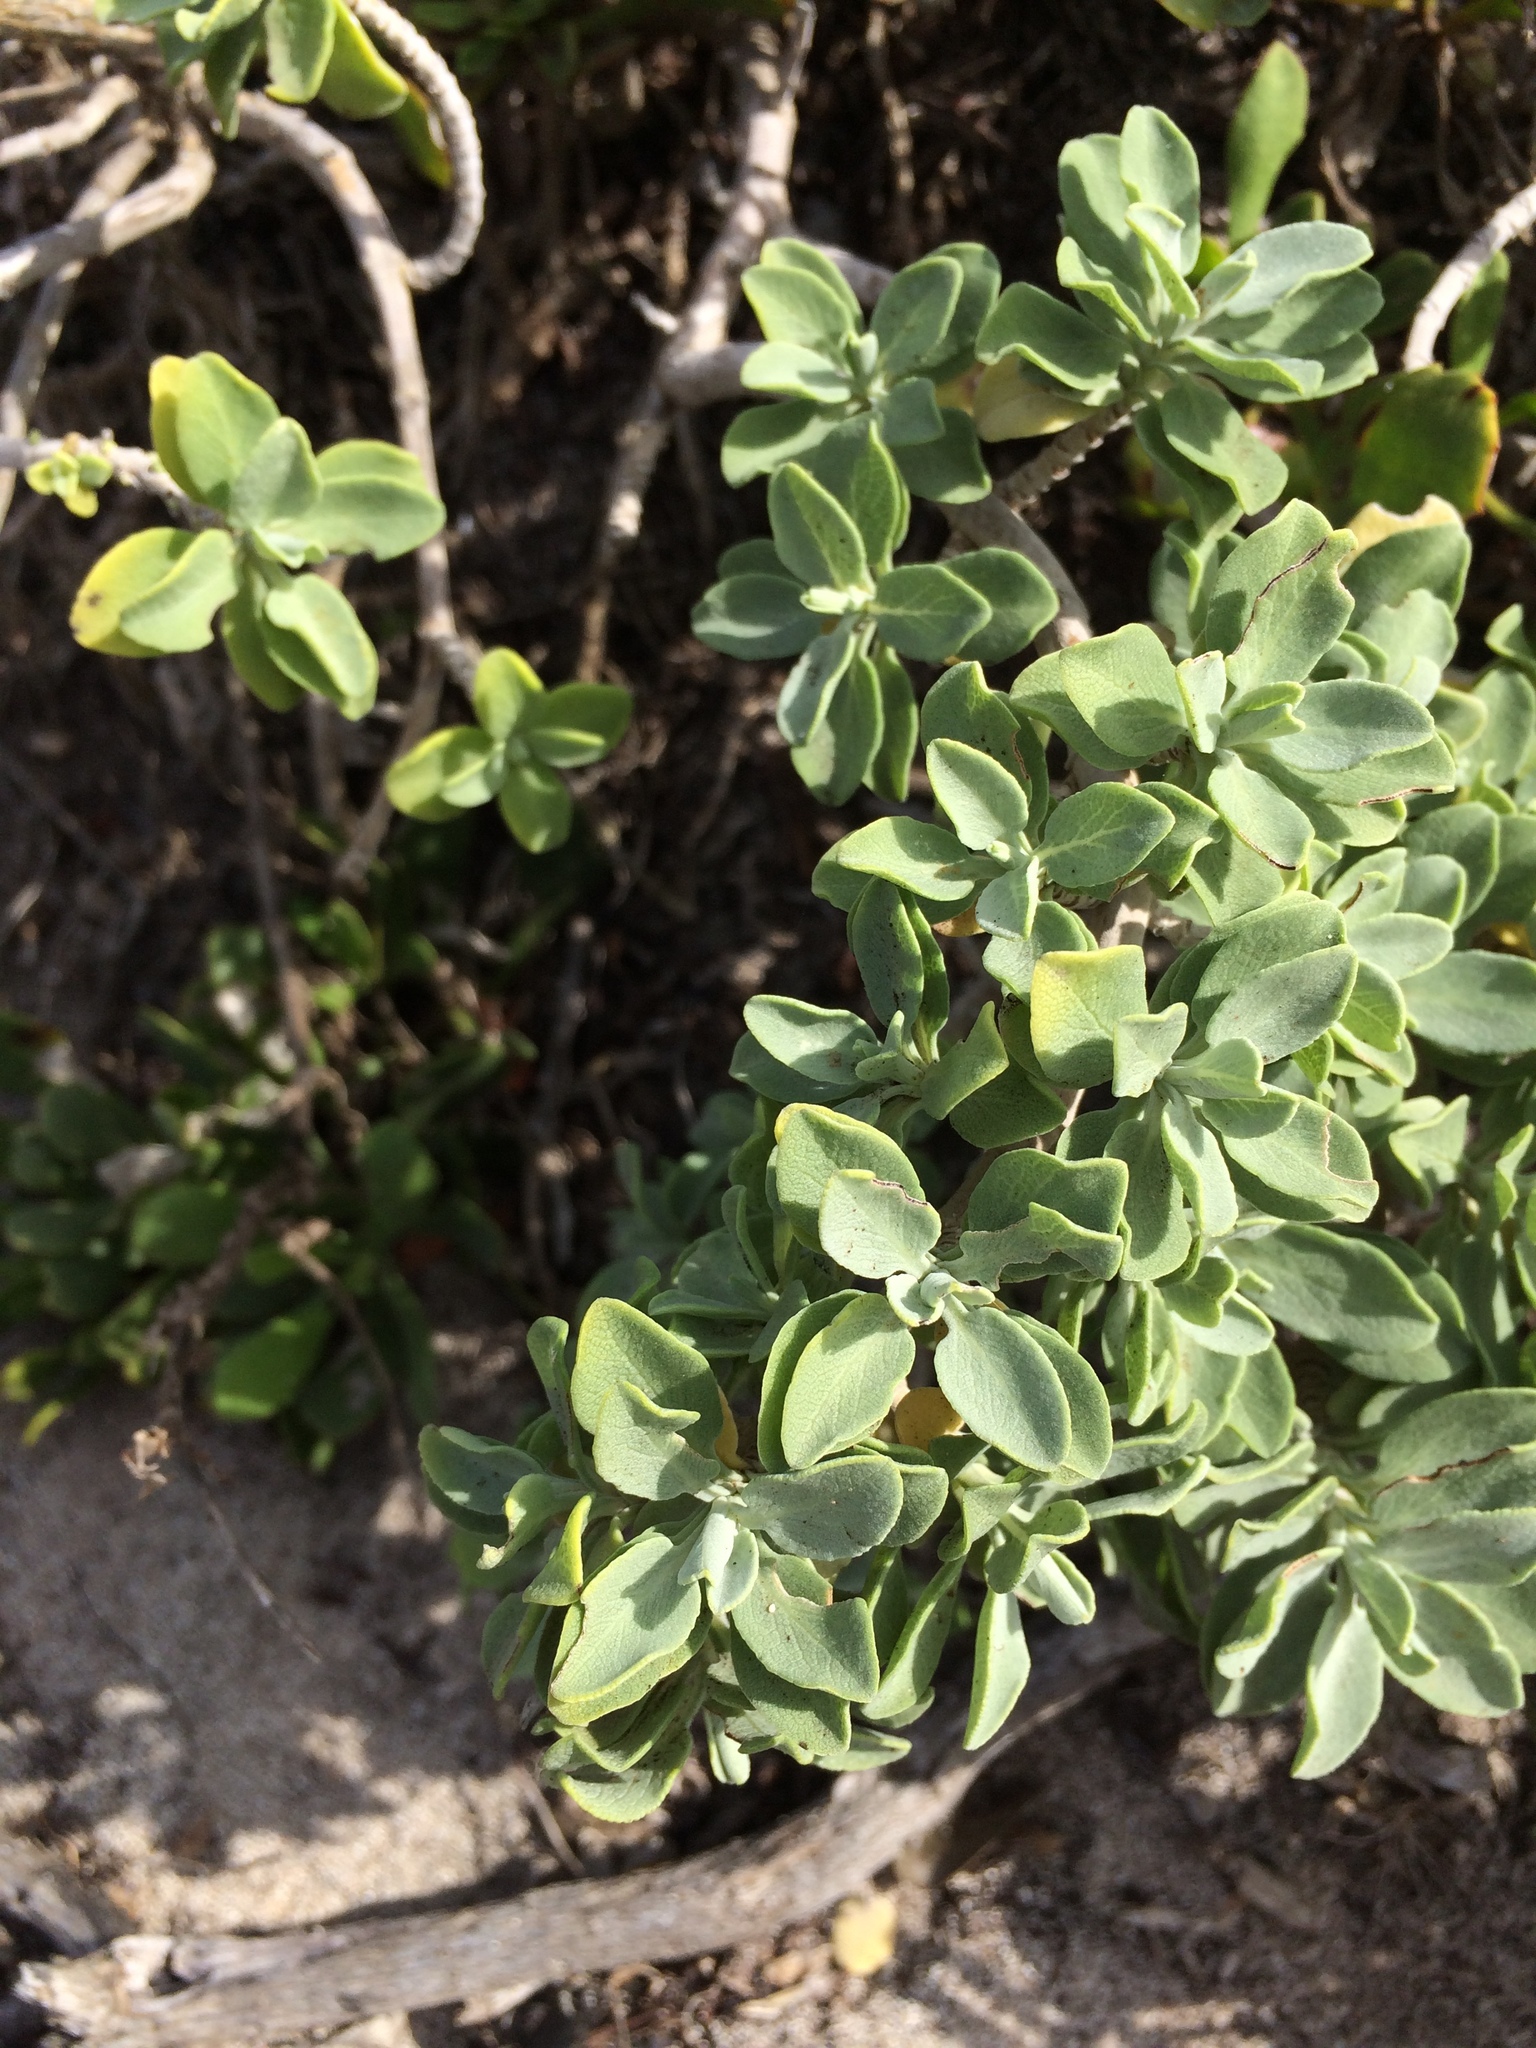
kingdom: Plantae
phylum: Tracheophyta
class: Magnoliopsida
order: Lamiales
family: Lamiaceae
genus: Salvia
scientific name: Salvia aurea
